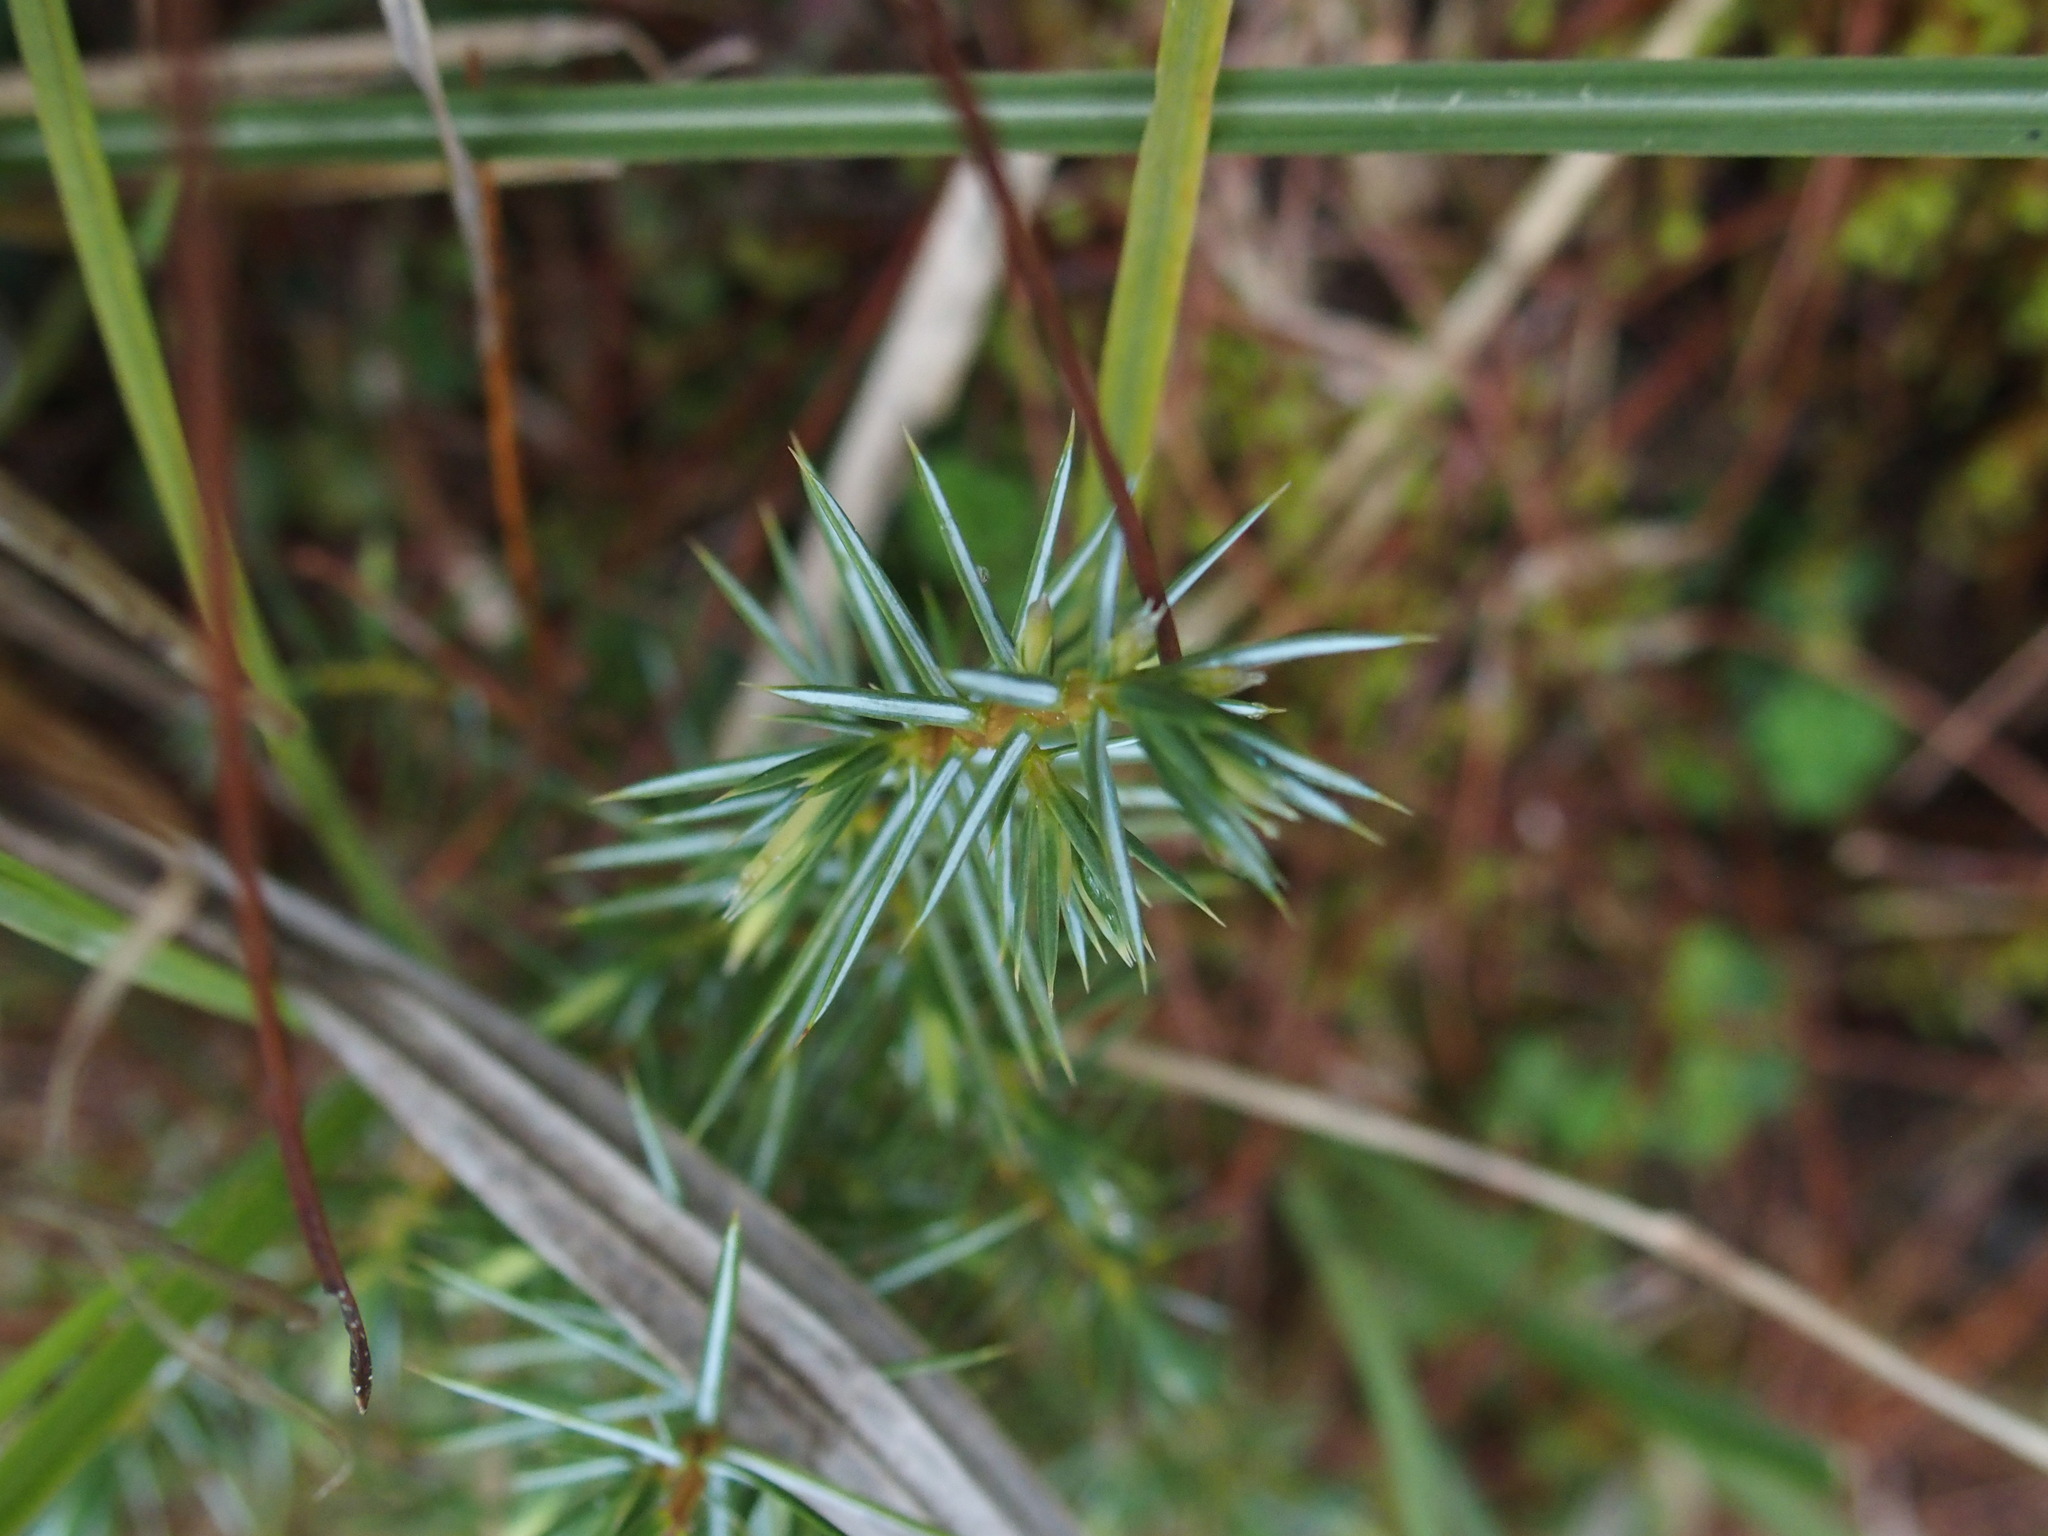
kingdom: Plantae
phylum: Tracheophyta
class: Pinopsida
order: Pinales
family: Cupressaceae
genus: Juniperus
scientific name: Juniperus formosana
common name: Formosan juniper
